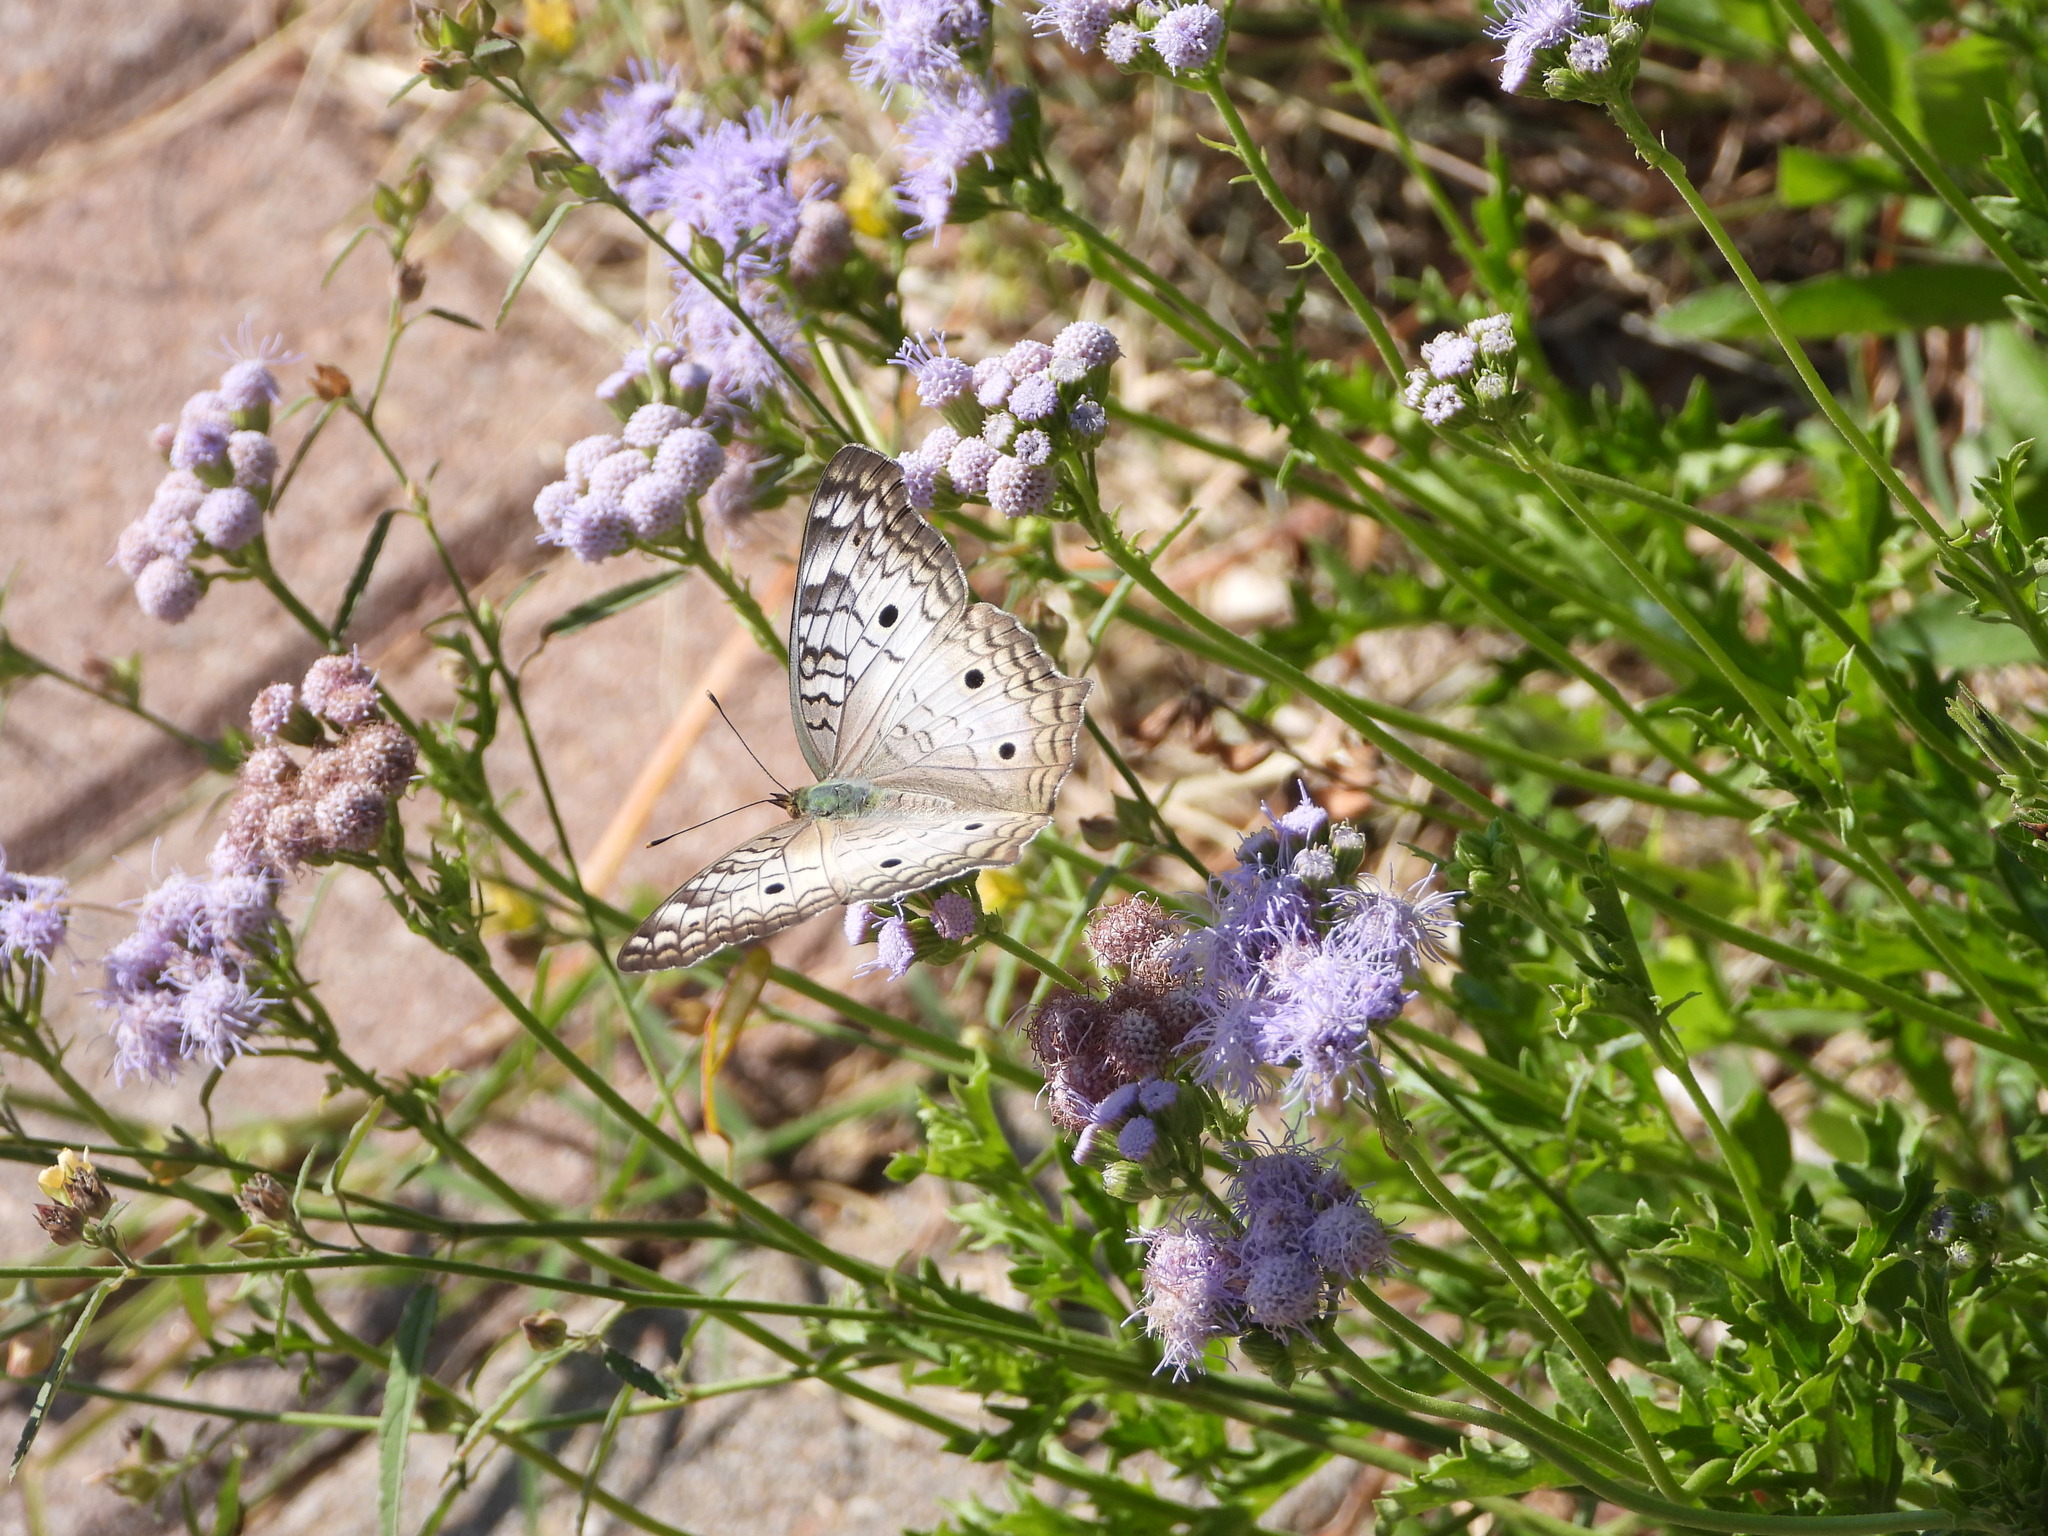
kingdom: Animalia
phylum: Arthropoda
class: Insecta
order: Lepidoptera
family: Nymphalidae
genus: Anartia
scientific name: Anartia jatrophae
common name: White peacock
